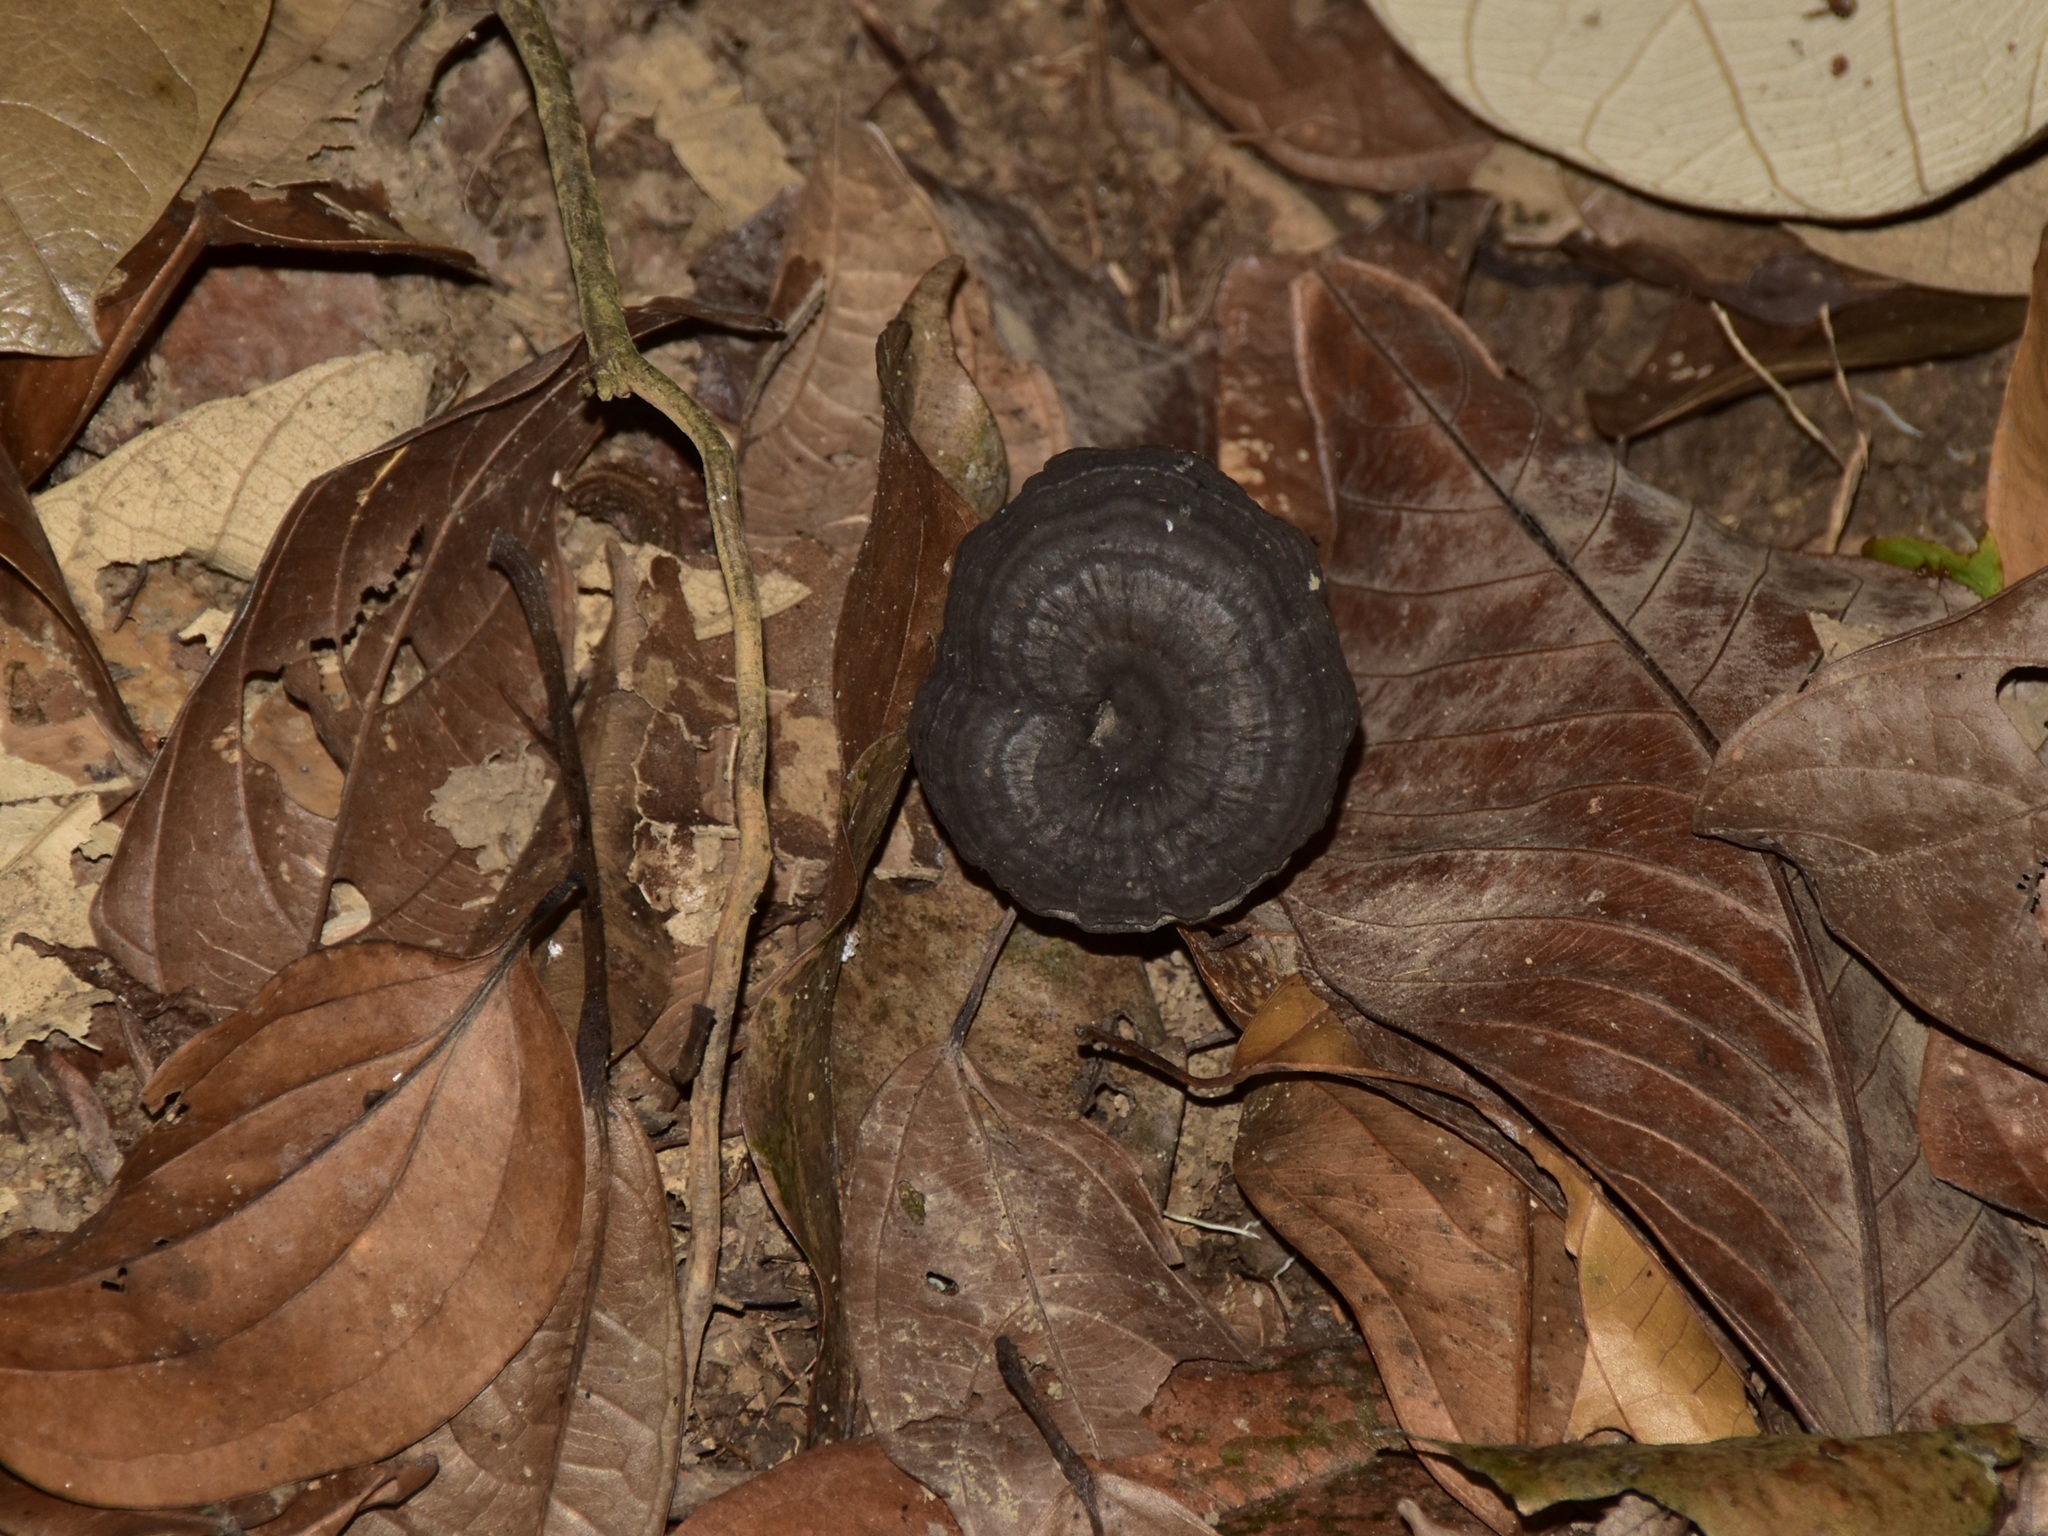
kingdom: Fungi
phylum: Basidiomycota
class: Agaricomycetes
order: Polyporales
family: Ganodermataceae
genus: Sanguinoderma
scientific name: Sanguinoderma rugosum
